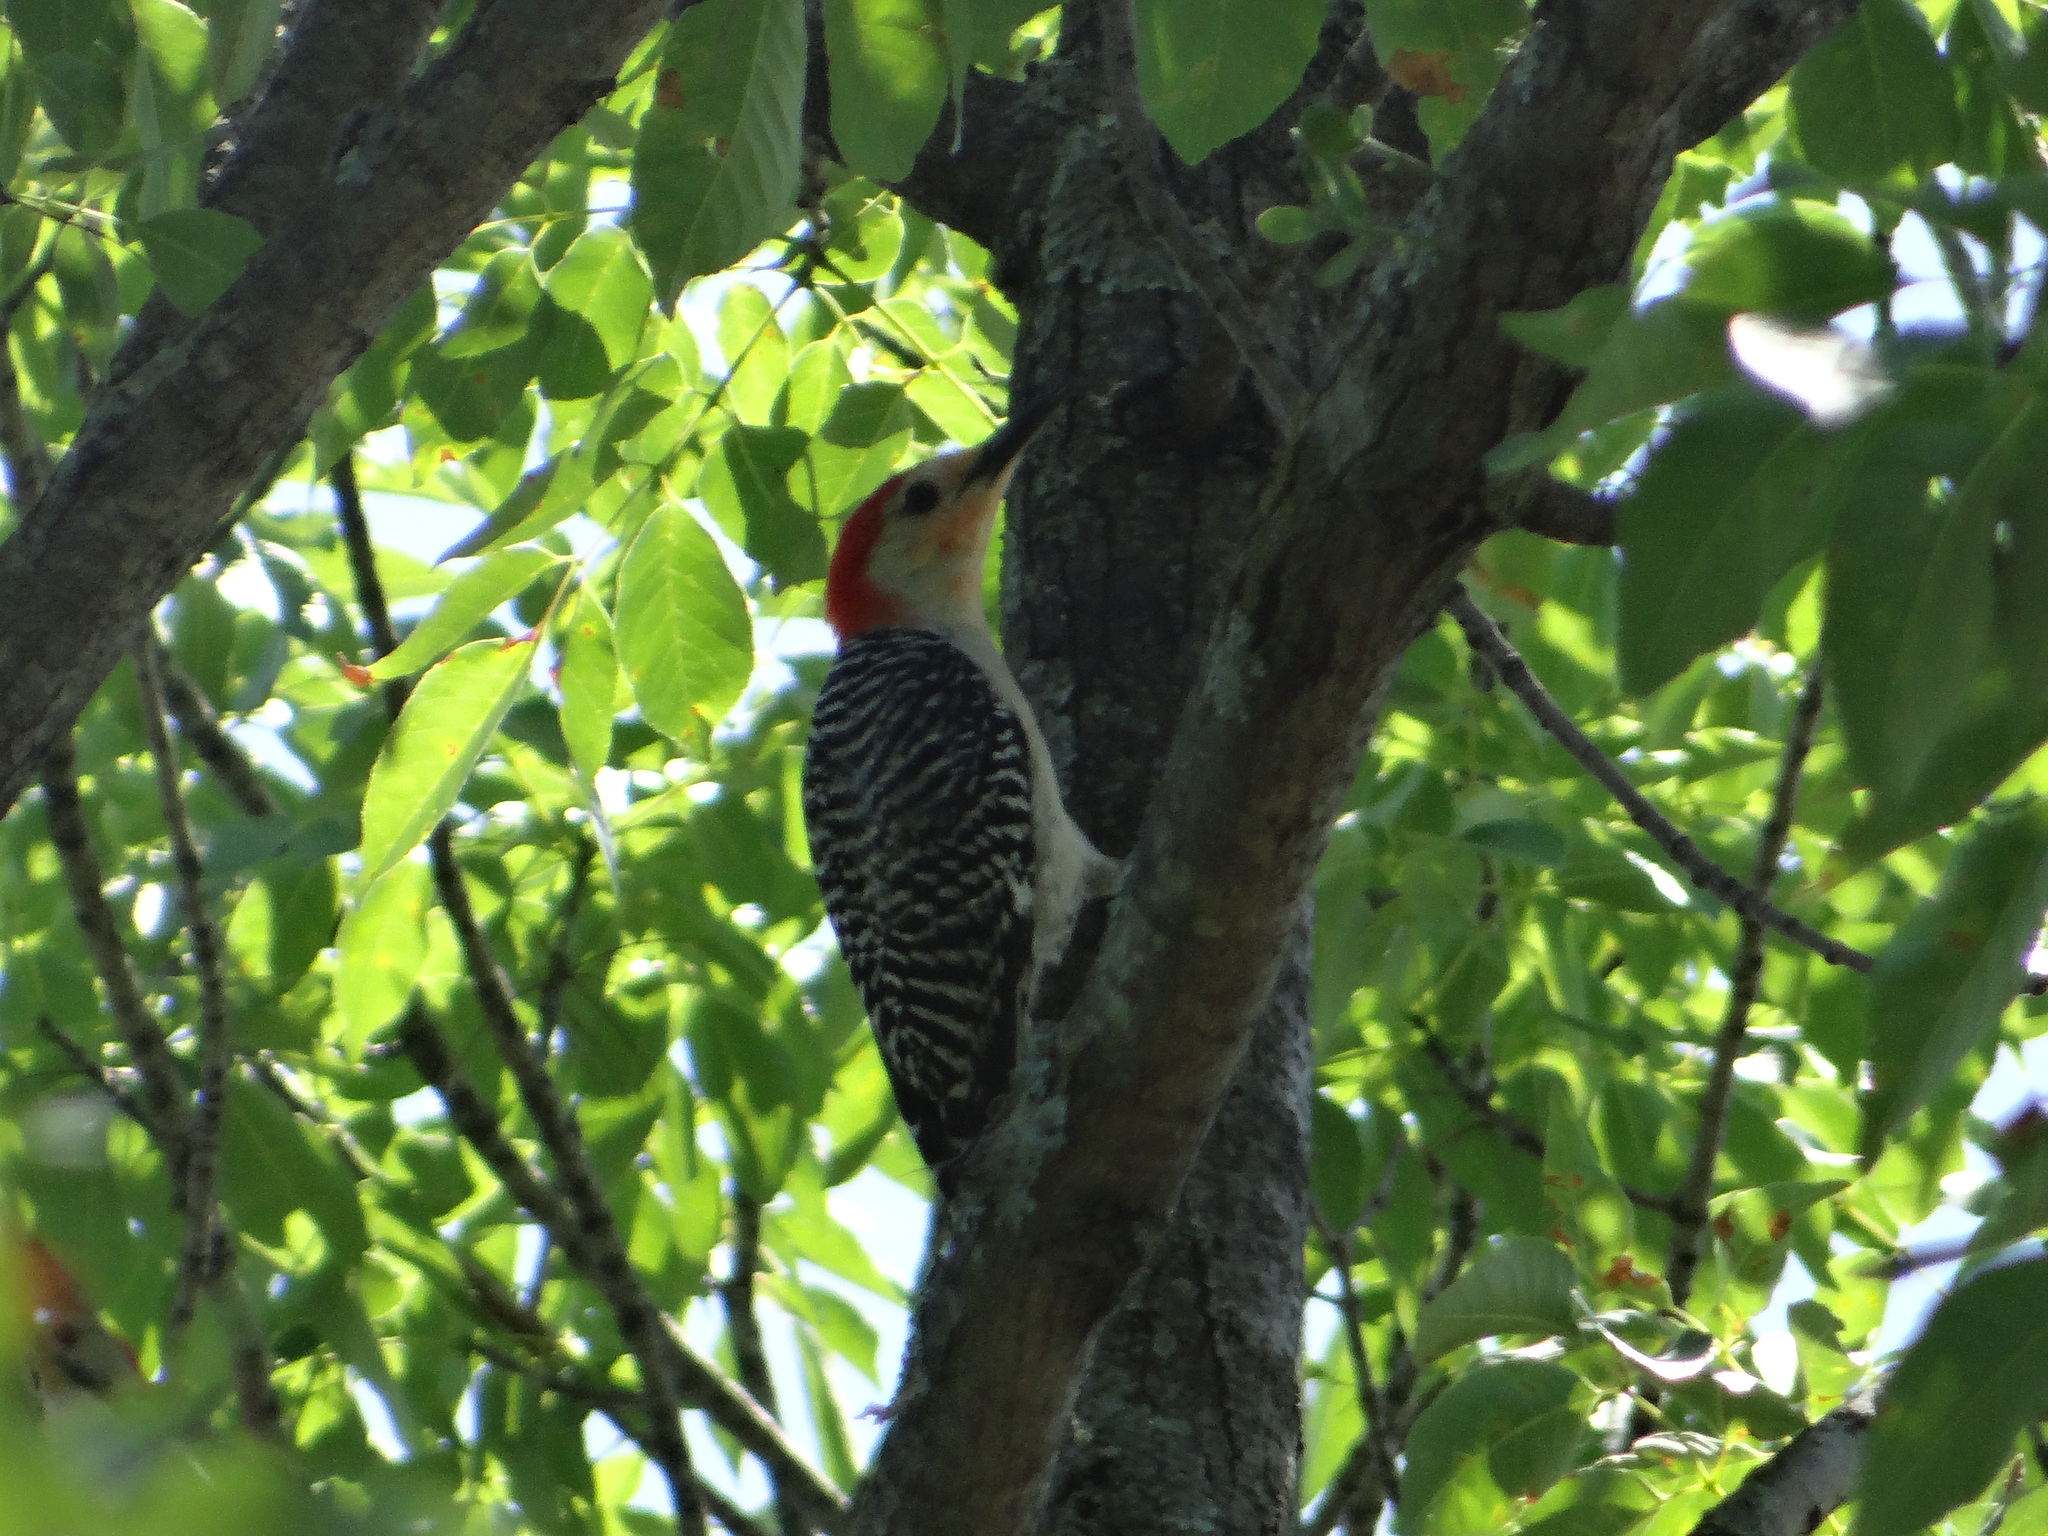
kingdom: Animalia
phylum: Chordata
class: Aves
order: Piciformes
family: Picidae
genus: Melanerpes
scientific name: Melanerpes carolinus
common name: Red-bellied woodpecker
